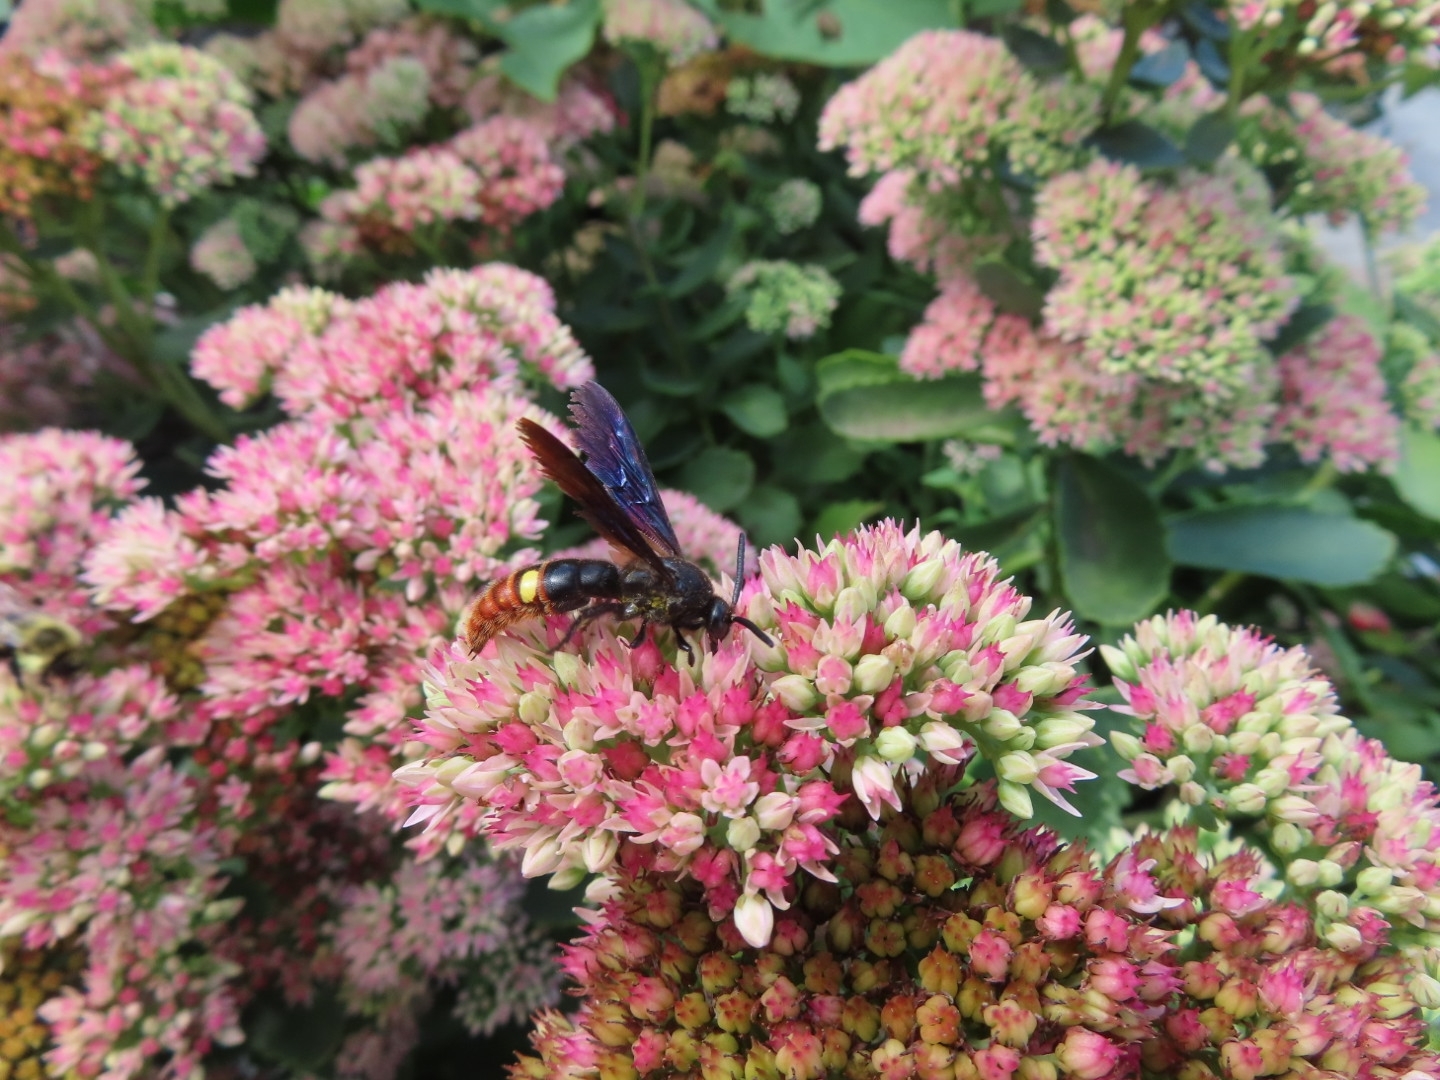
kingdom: Animalia
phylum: Arthropoda
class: Insecta
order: Hymenoptera
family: Scoliidae
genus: Scolia
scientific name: Scolia dubia
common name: Blue-winged scoliid wasp
